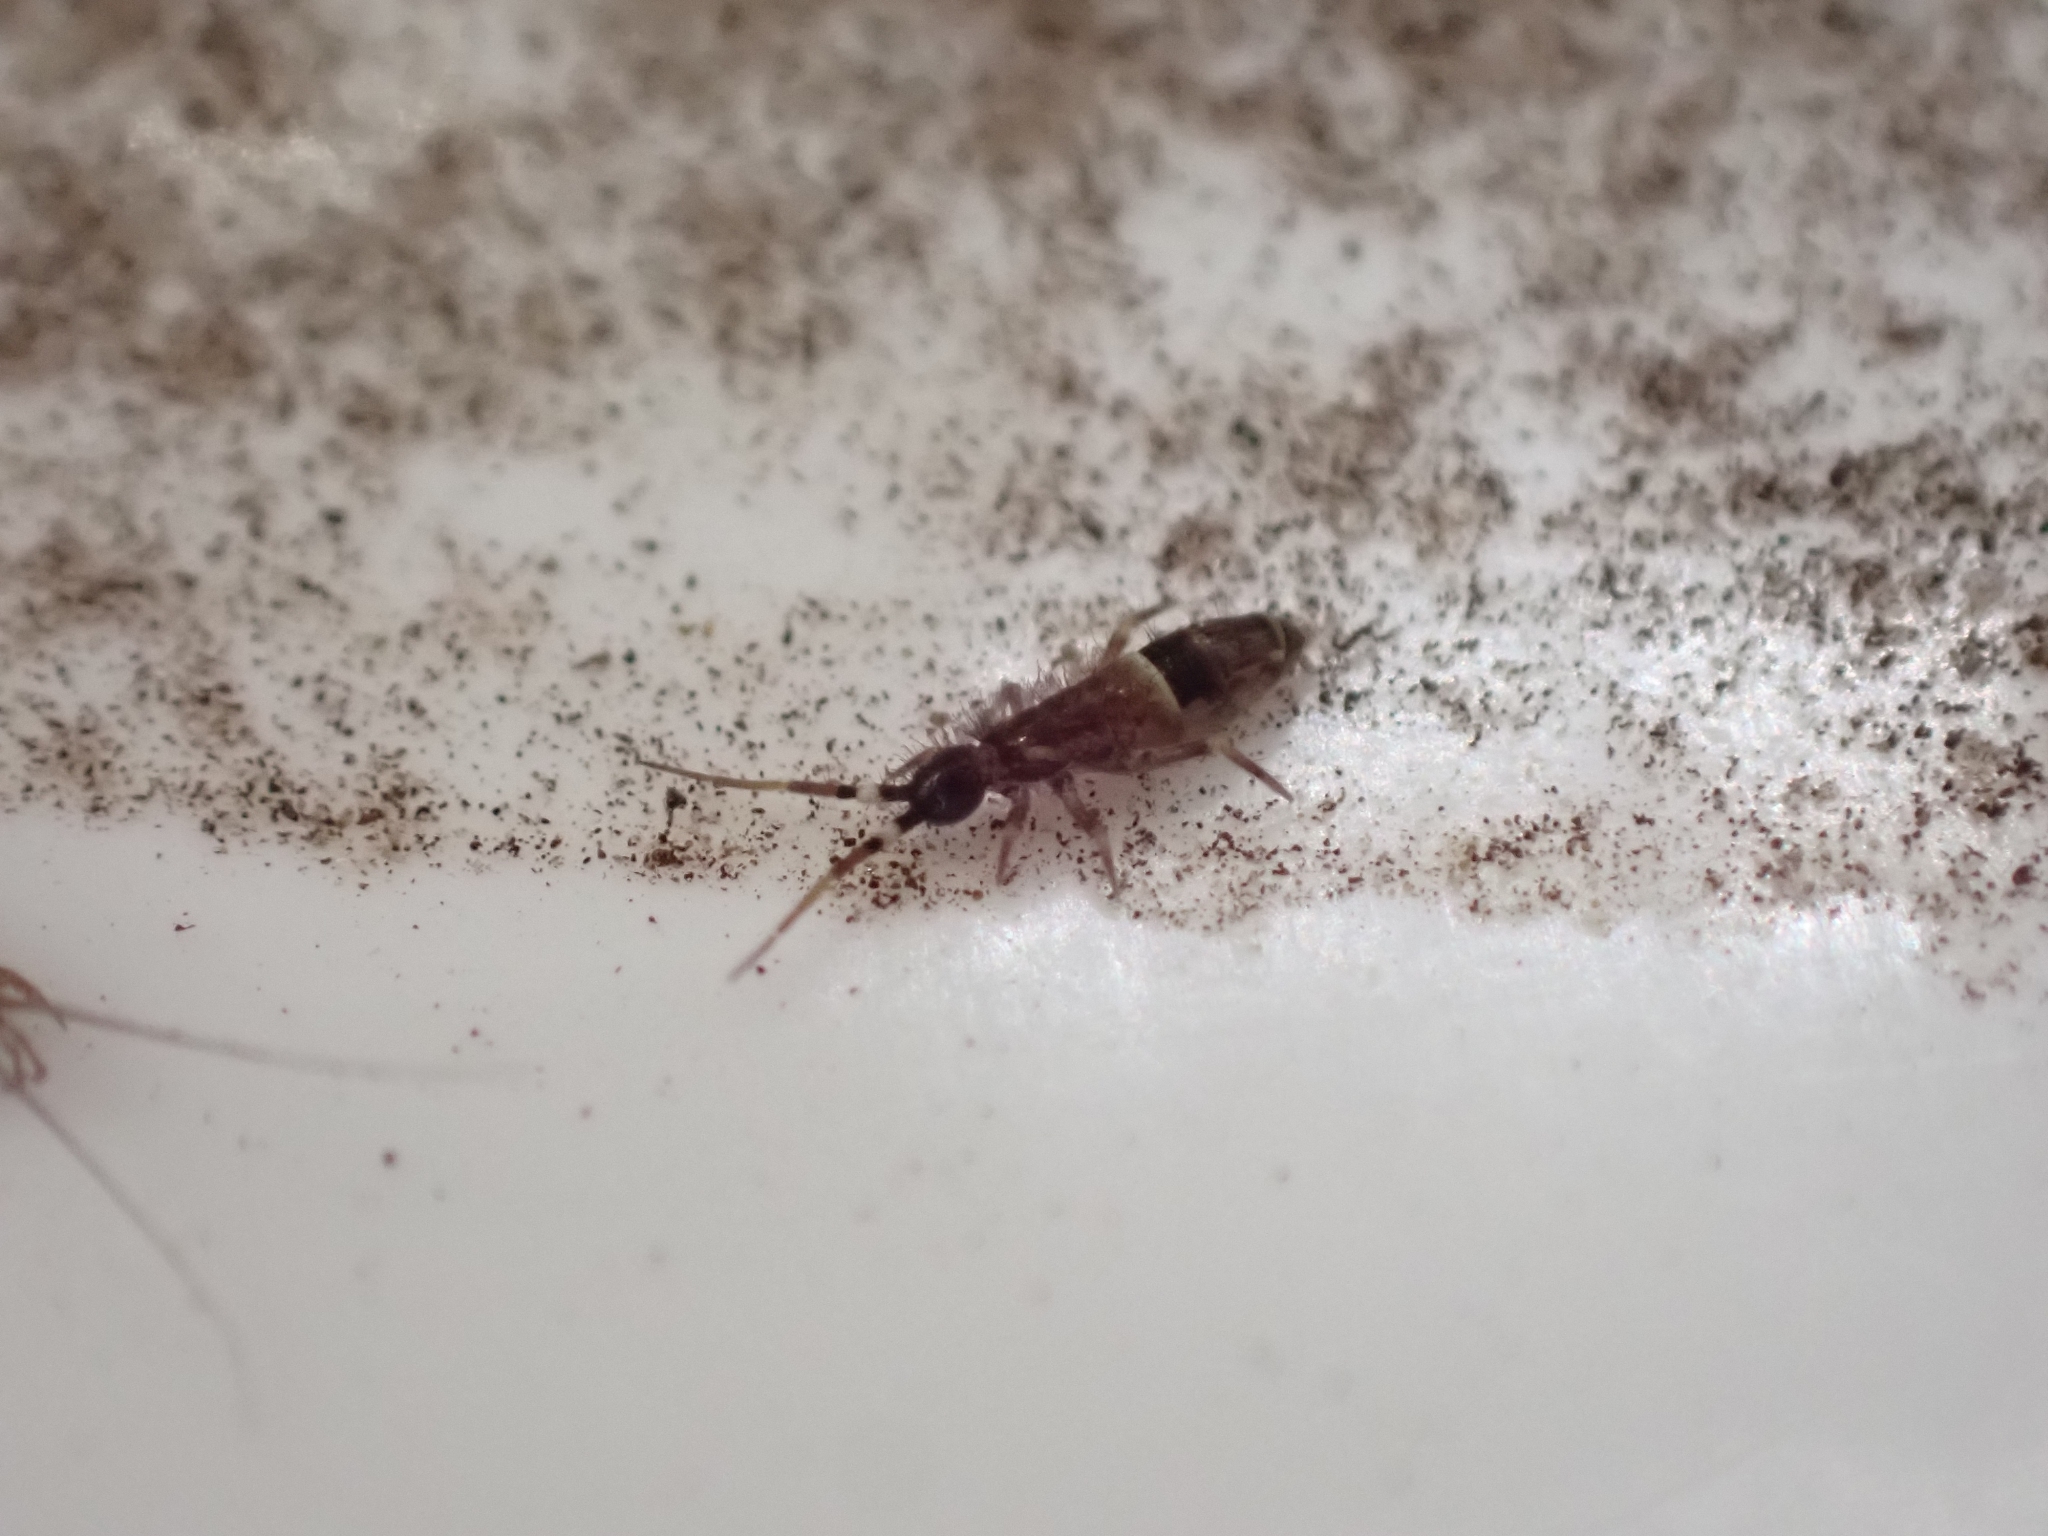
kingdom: Animalia
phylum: Arthropoda
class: Collembola
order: Entomobryomorpha
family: Orchesellidae
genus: Orchesella
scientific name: Orchesella cincta
